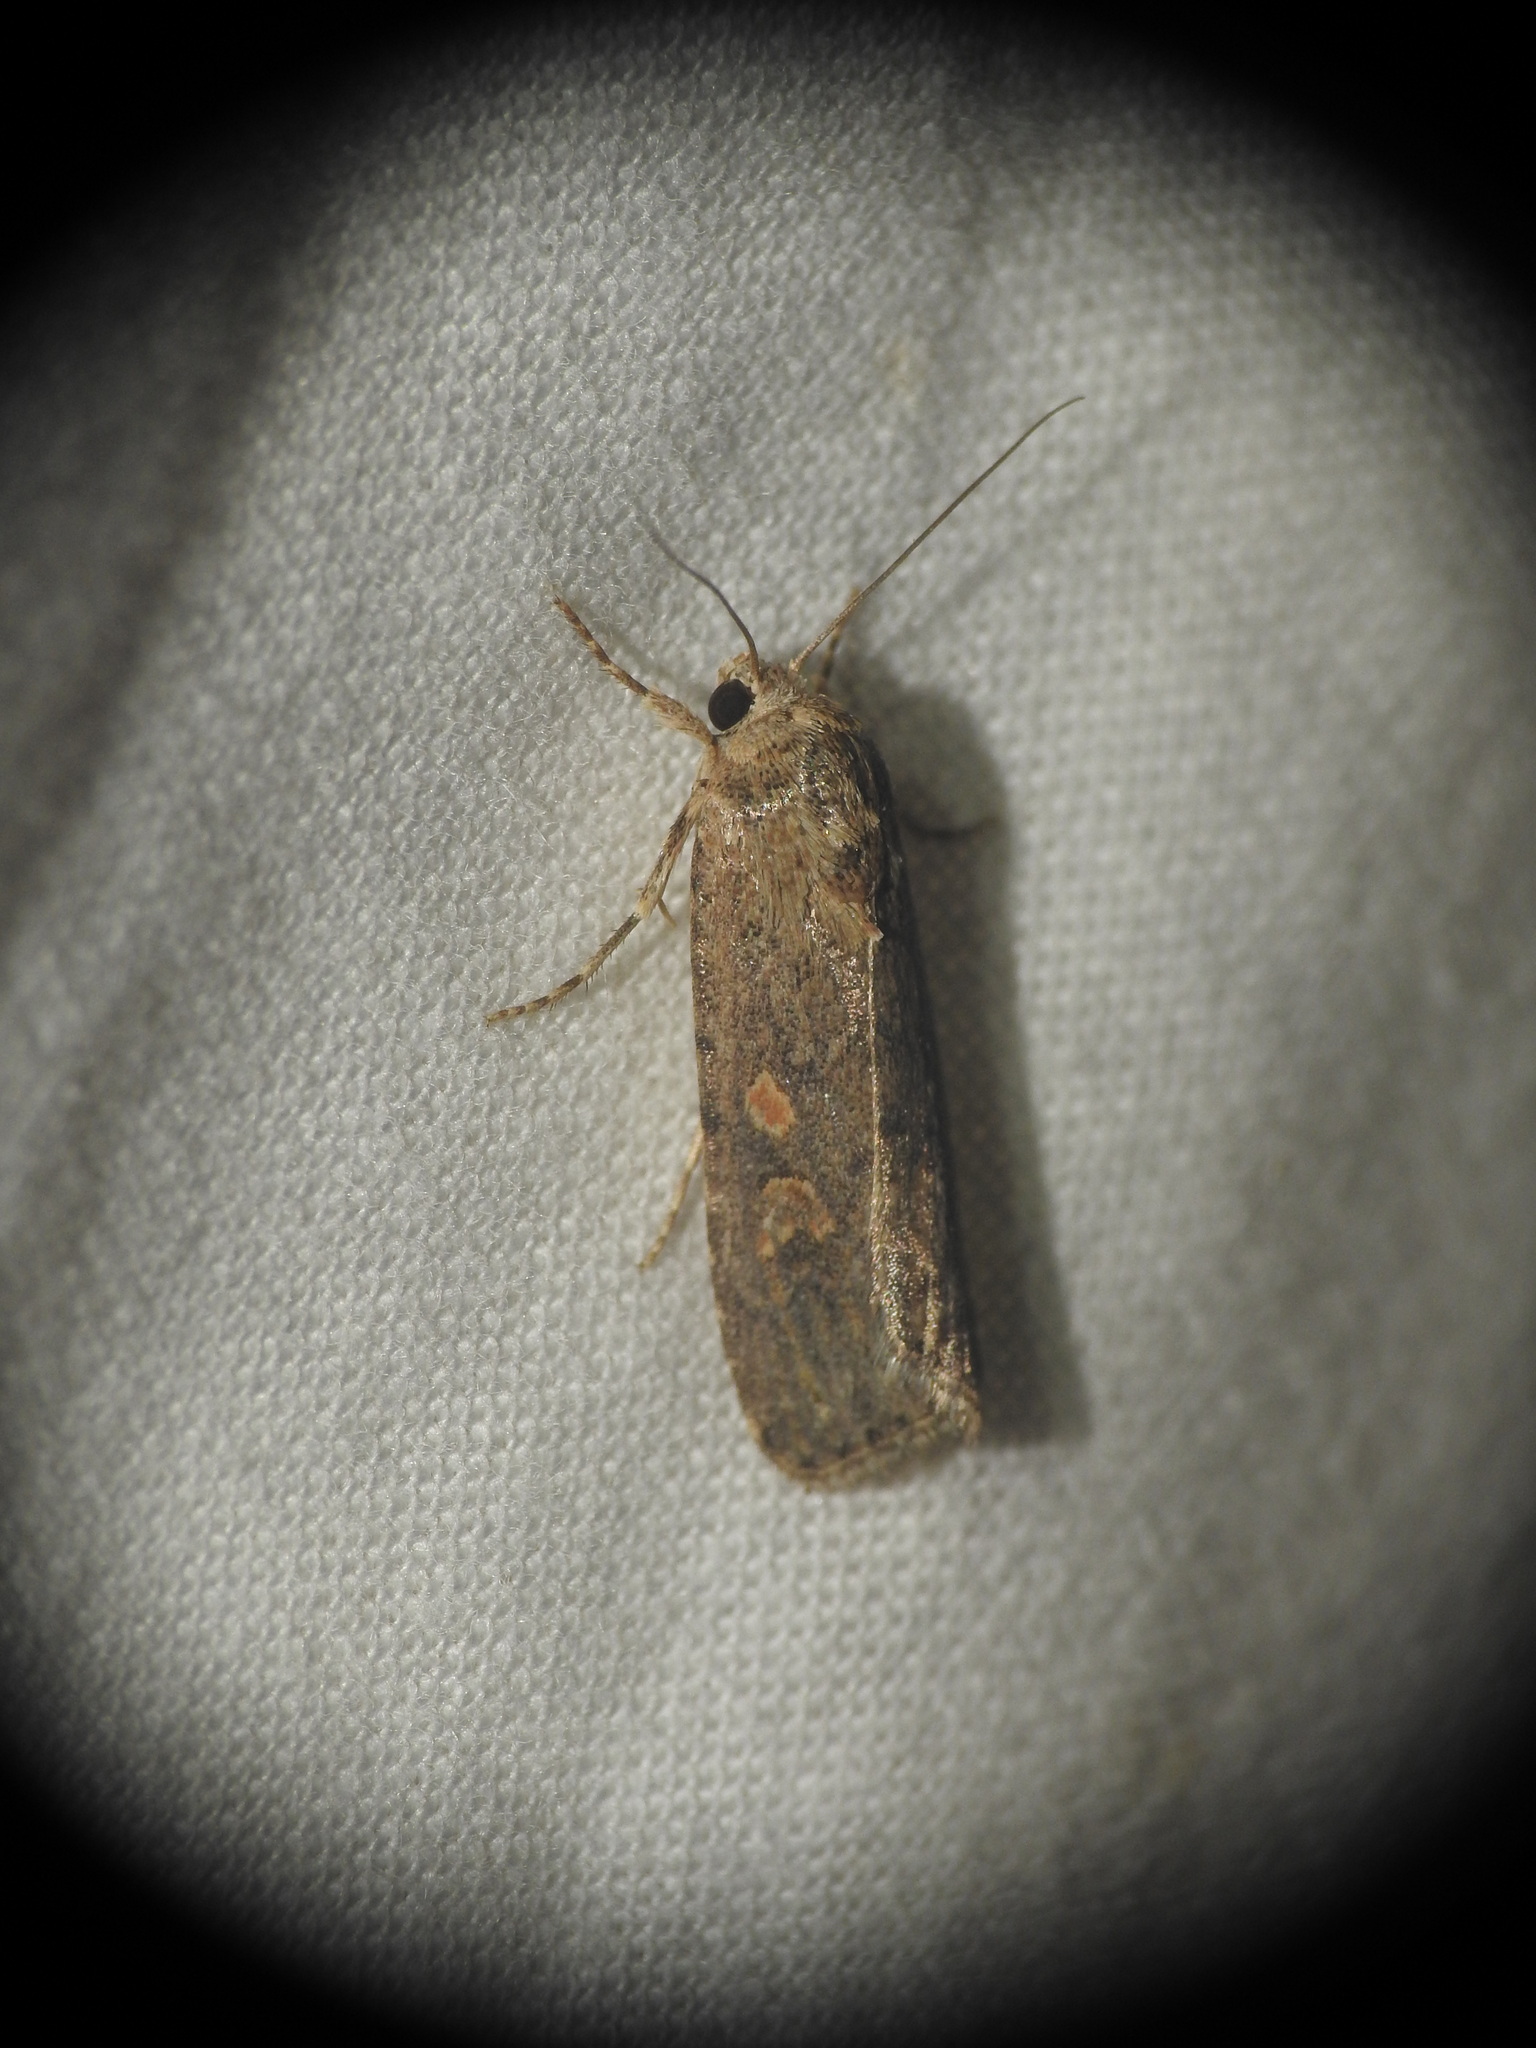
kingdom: Animalia
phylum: Arthropoda
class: Insecta
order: Lepidoptera
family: Noctuidae
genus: Spodoptera
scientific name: Spodoptera exigua
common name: Beet armyworm
